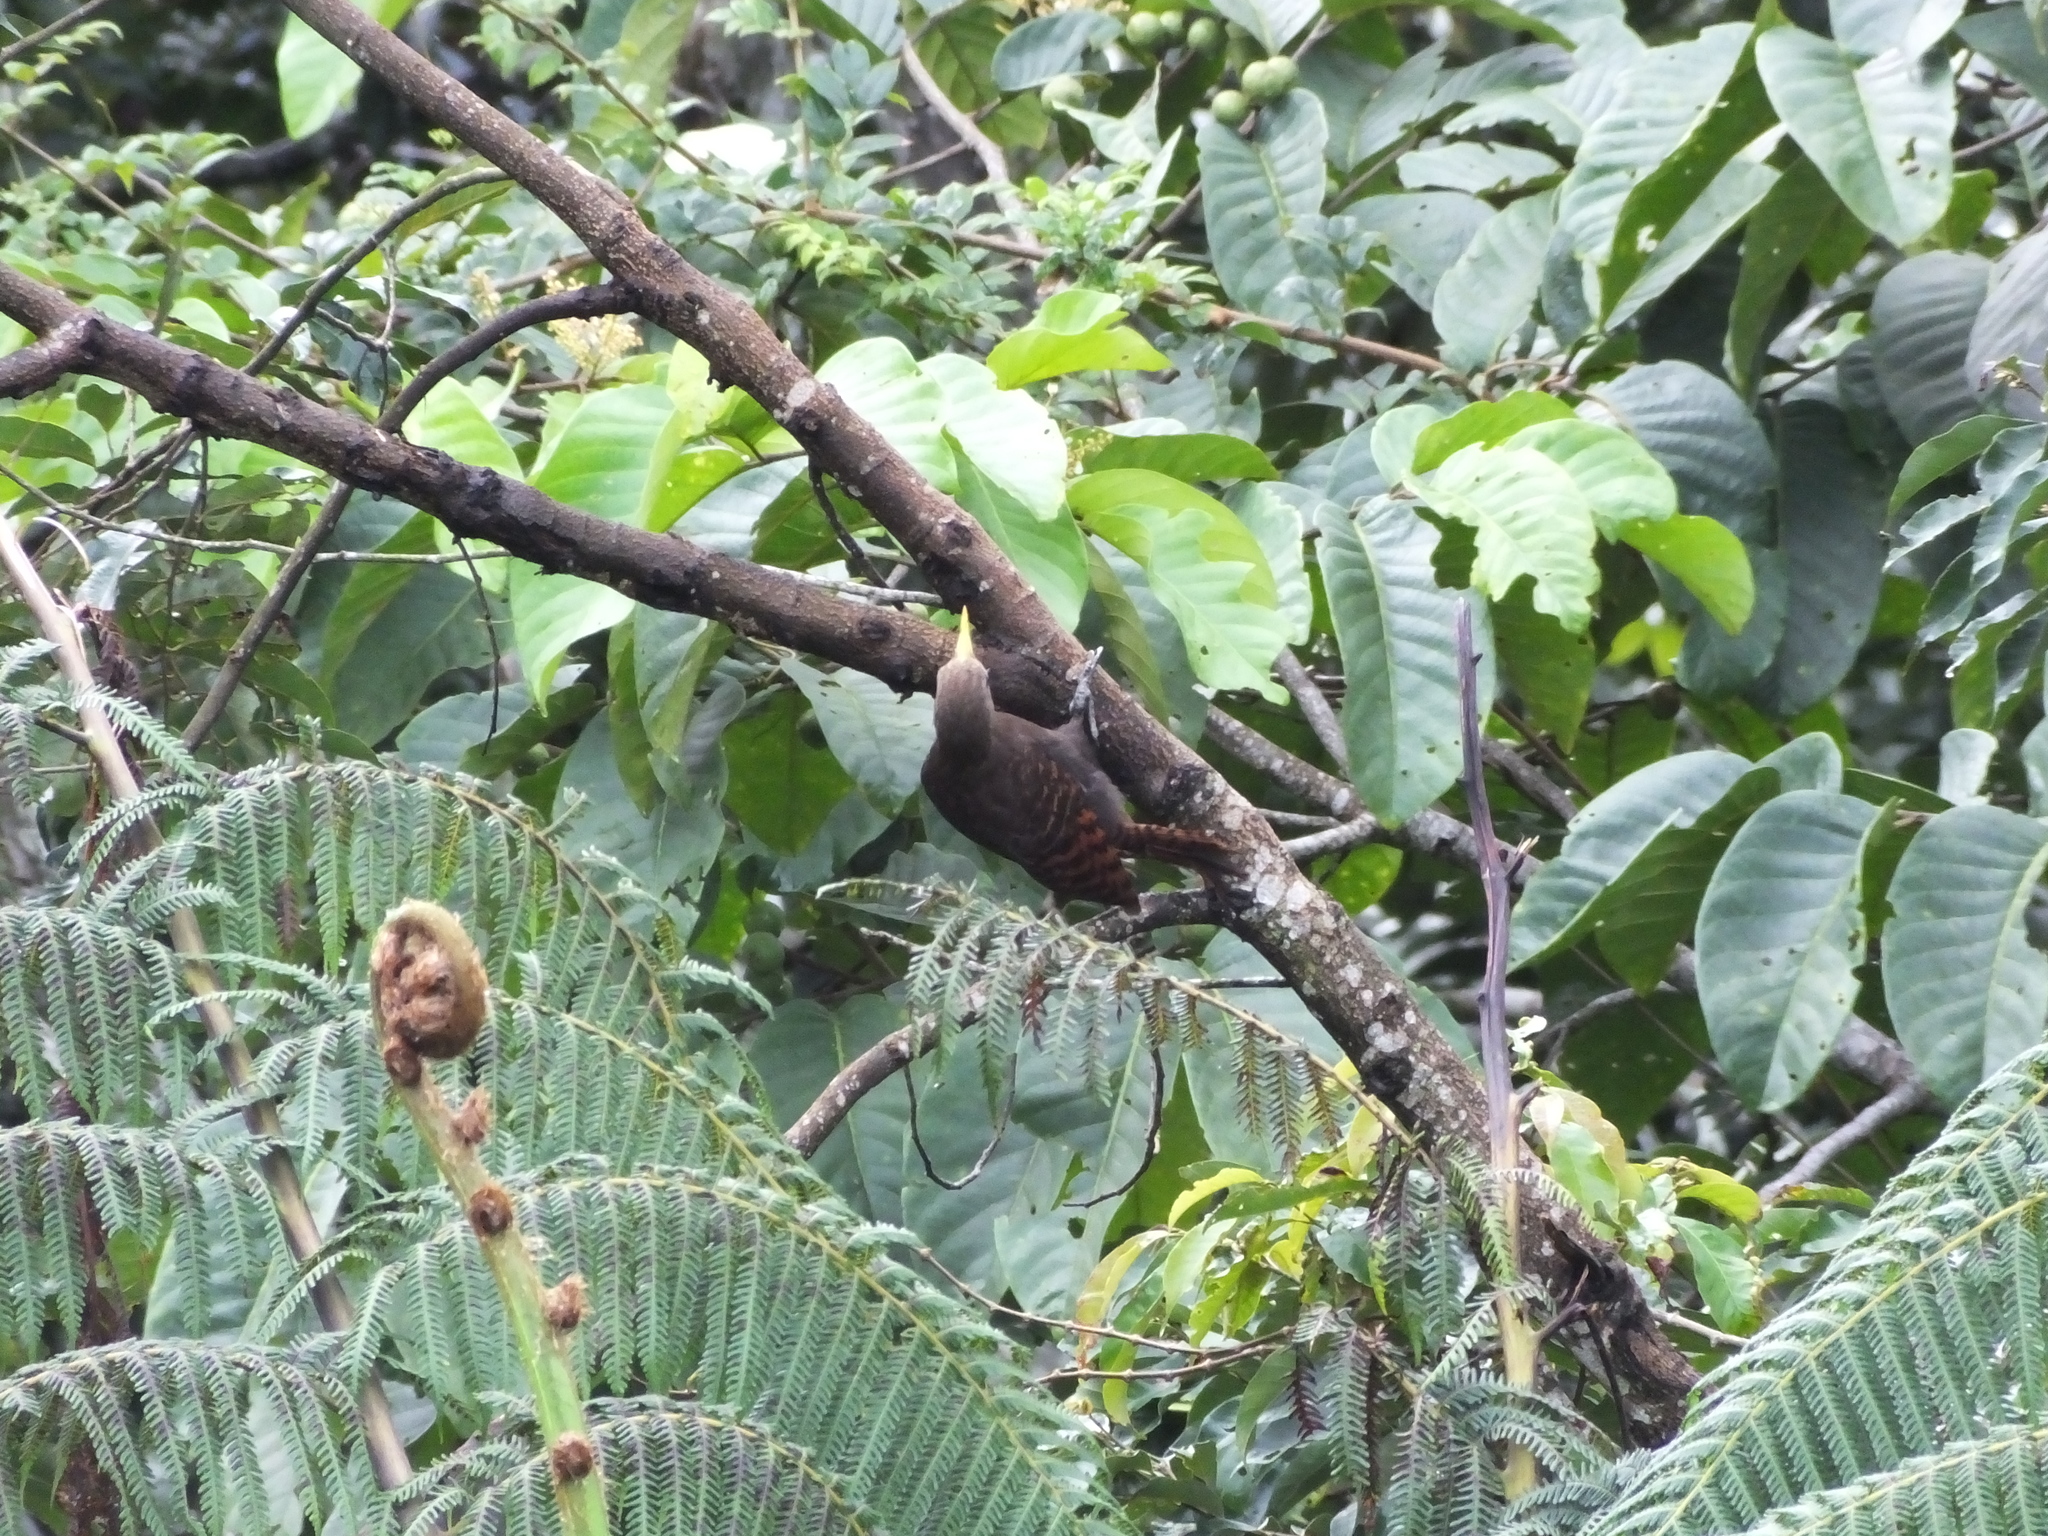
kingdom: Animalia
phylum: Chordata
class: Aves
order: Piciformes
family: Picidae
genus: Blythipicus
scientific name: Blythipicus pyrrhotis
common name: Bay woodpecker
